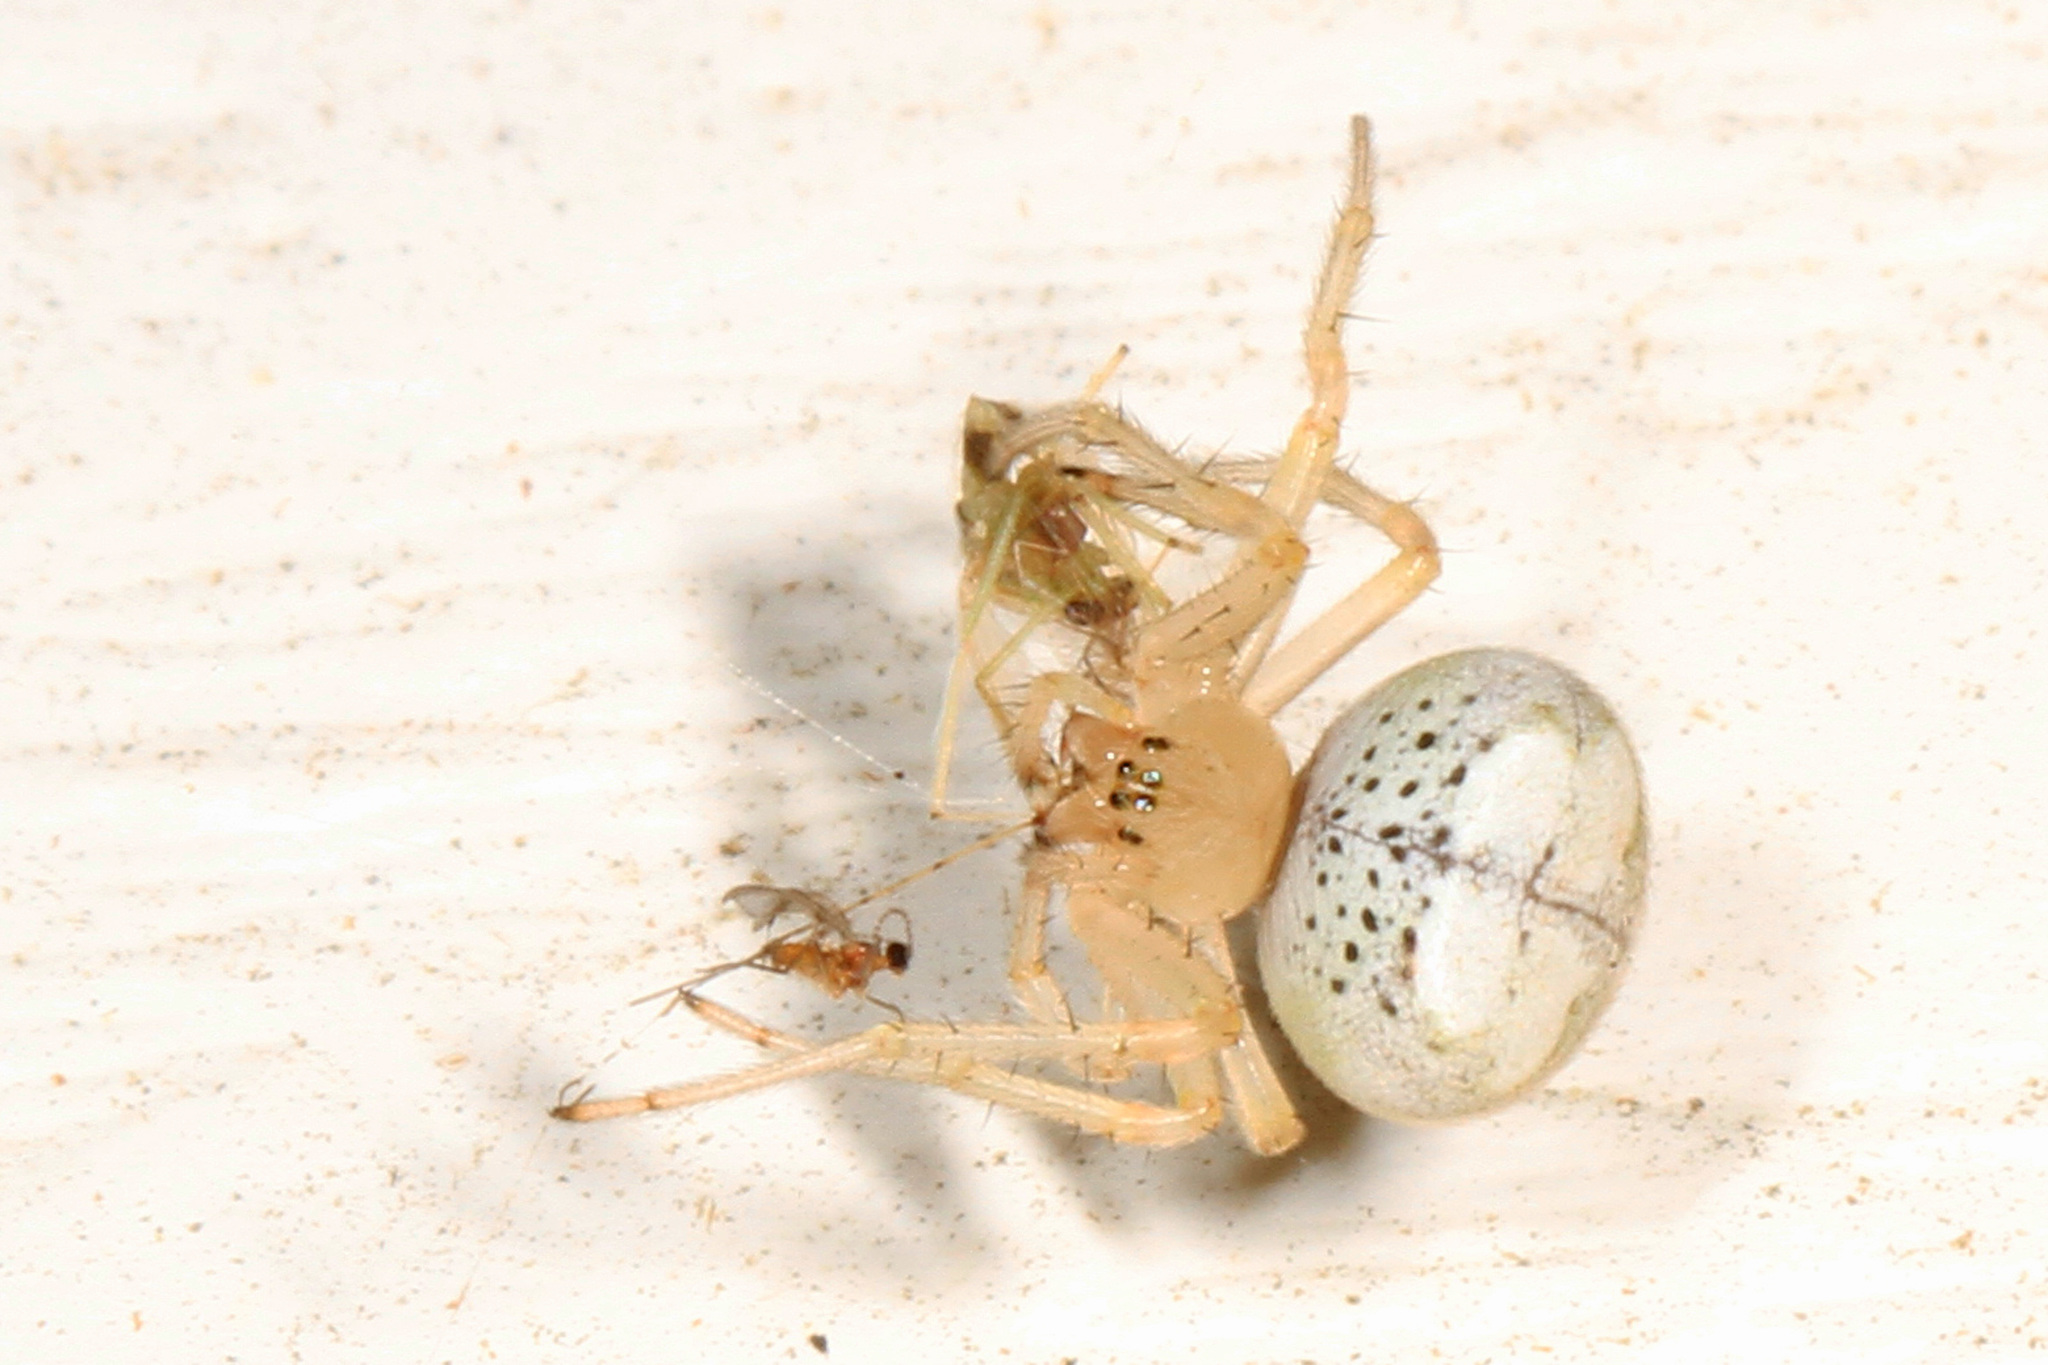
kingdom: Animalia
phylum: Arthropoda
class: Arachnida
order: Araneae
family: Araneidae
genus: Araneus
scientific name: Araneus pegnia
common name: Orb weavers
